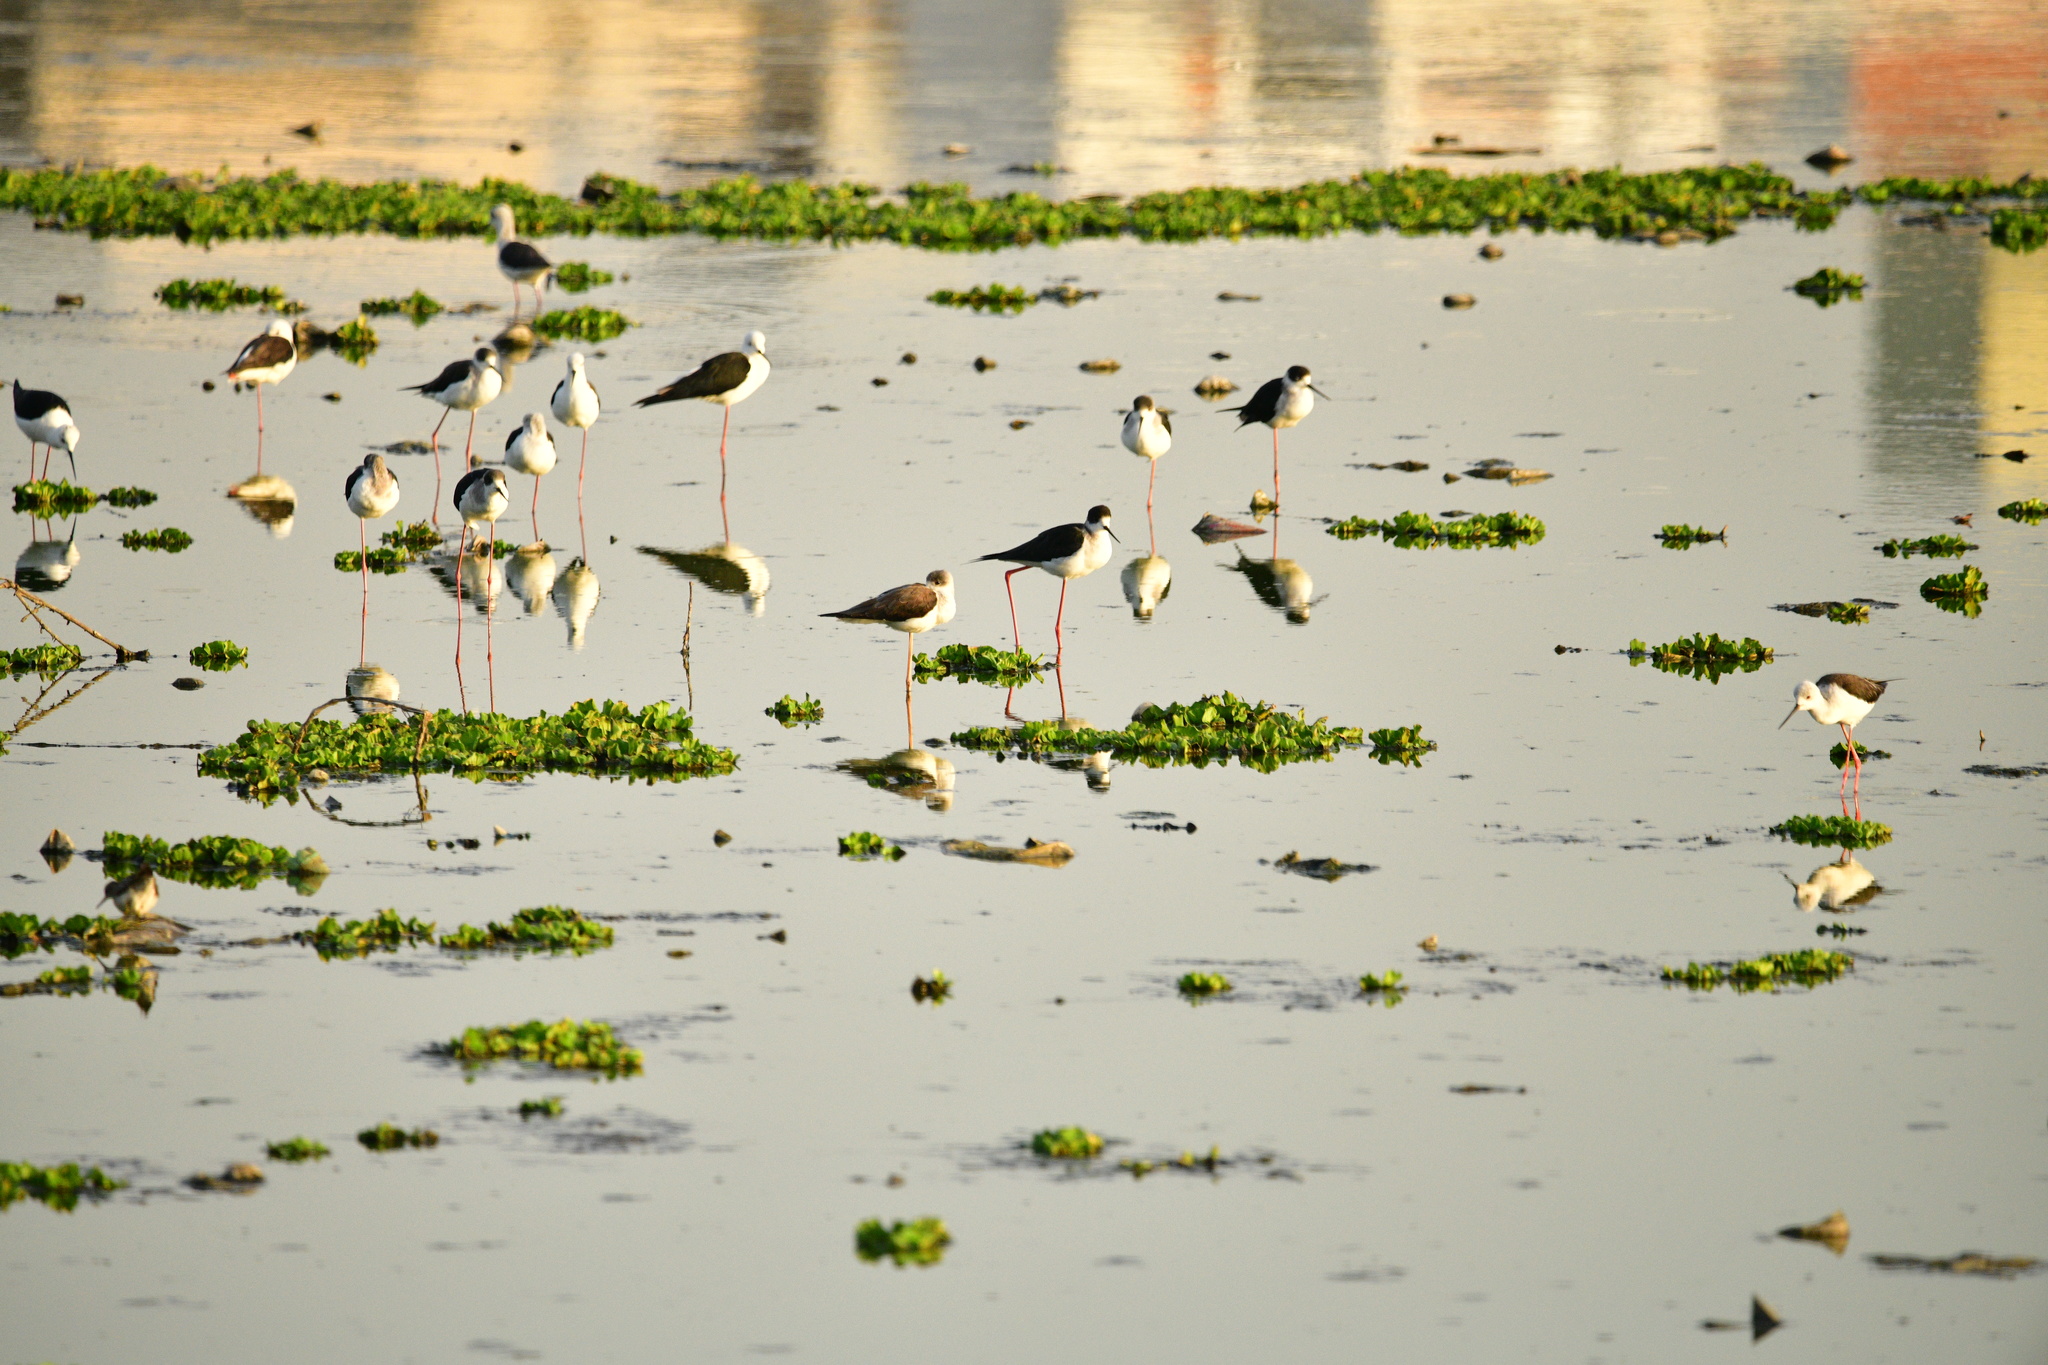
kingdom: Animalia
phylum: Chordata
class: Aves
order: Charadriiformes
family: Recurvirostridae
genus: Himantopus
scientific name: Himantopus himantopus
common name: Black-winged stilt
